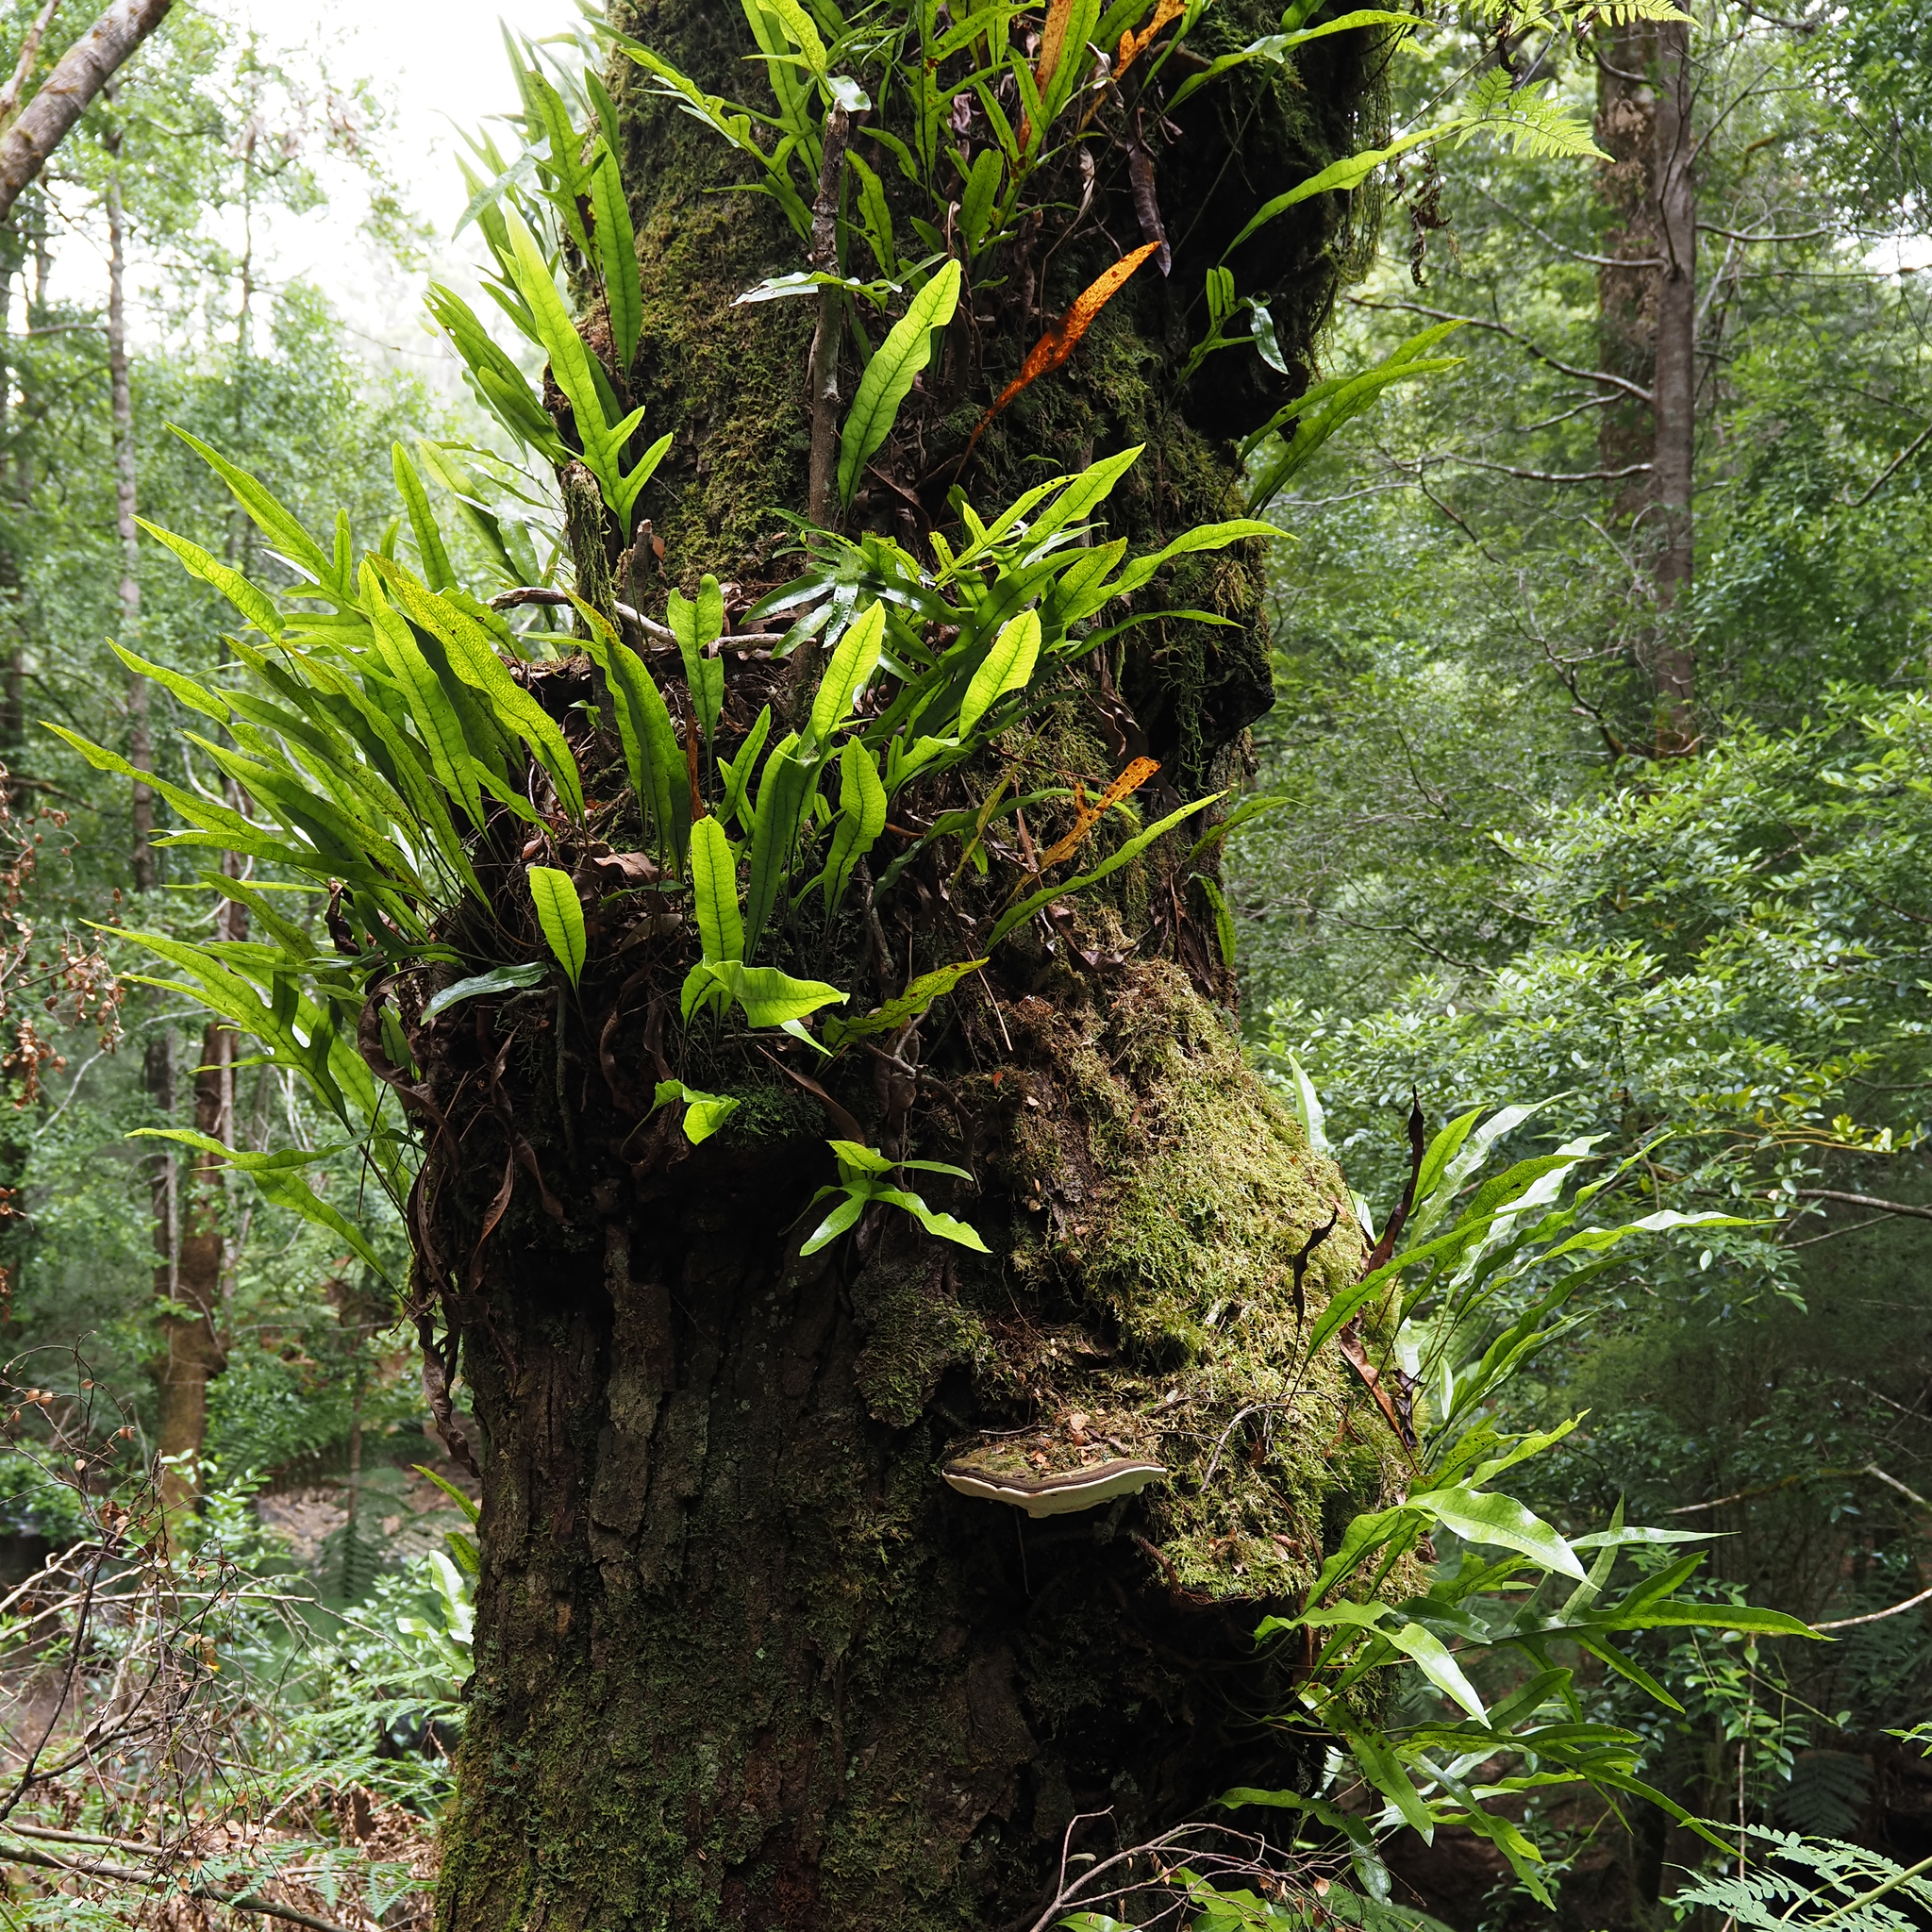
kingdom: Plantae
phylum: Tracheophyta
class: Polypodiopsida
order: Polypodiales
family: Polypodiaceae
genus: Lecanopteris
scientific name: Lecanopteris pustulata
